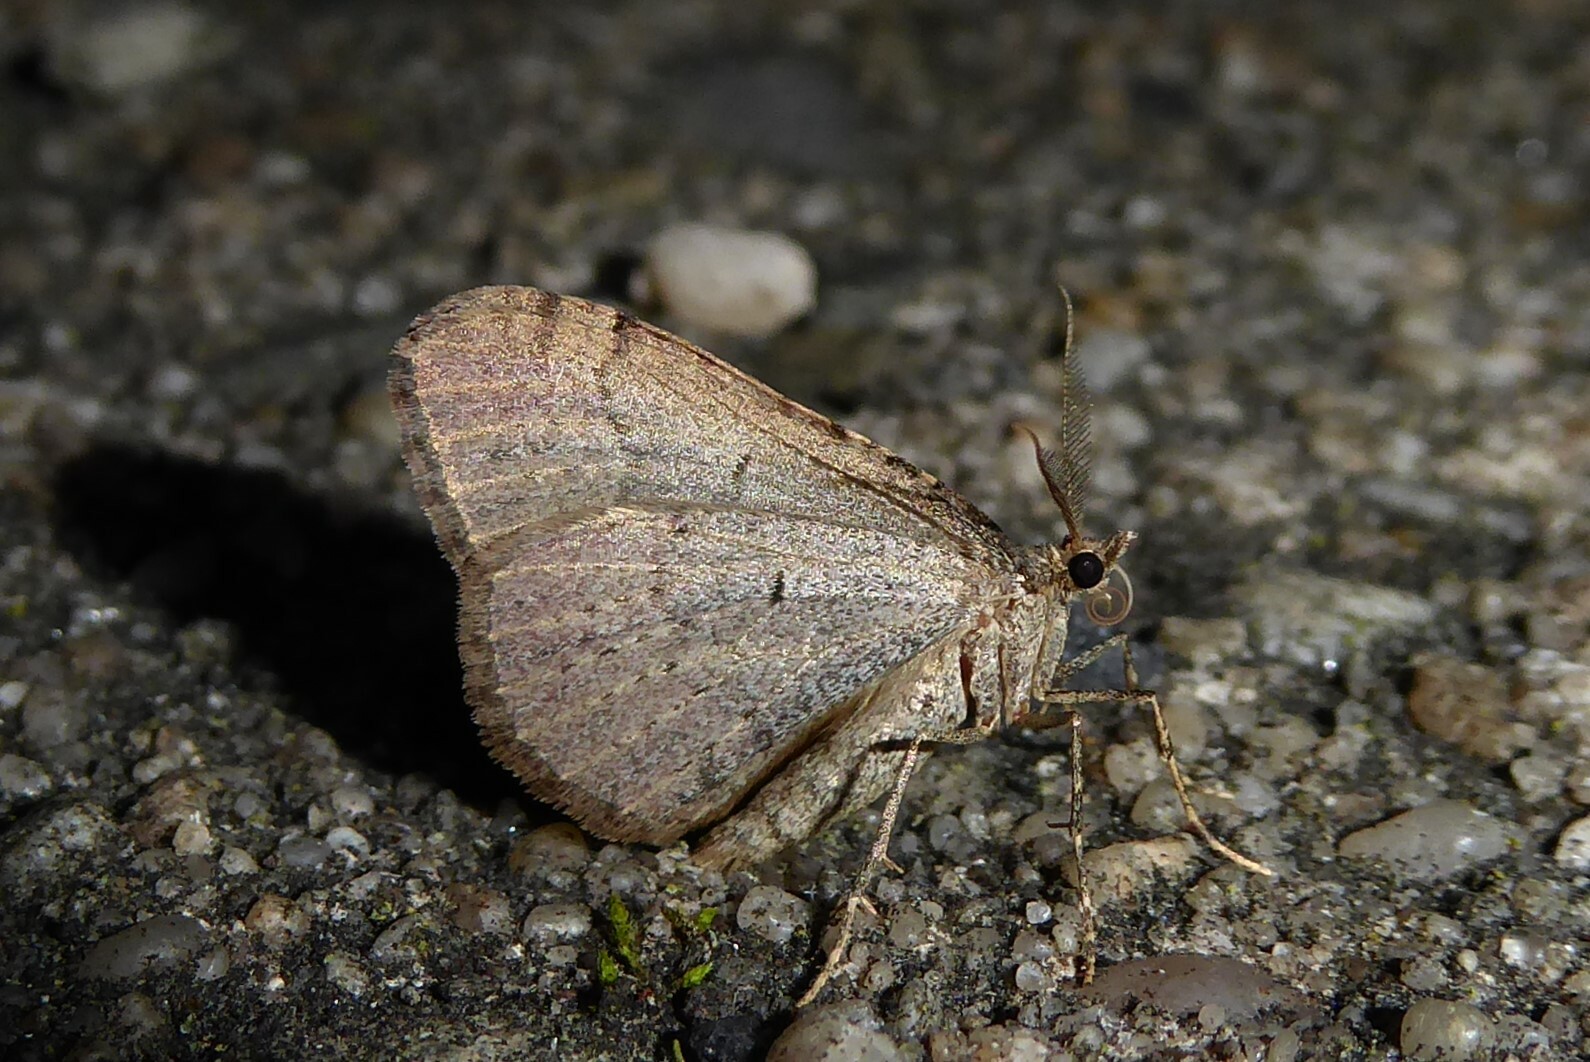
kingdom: Animalia
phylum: Arthropoda
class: Insecta
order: Lepidoptera
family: Geometridae
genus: Epyaxa
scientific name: Epyaxa rosearia
